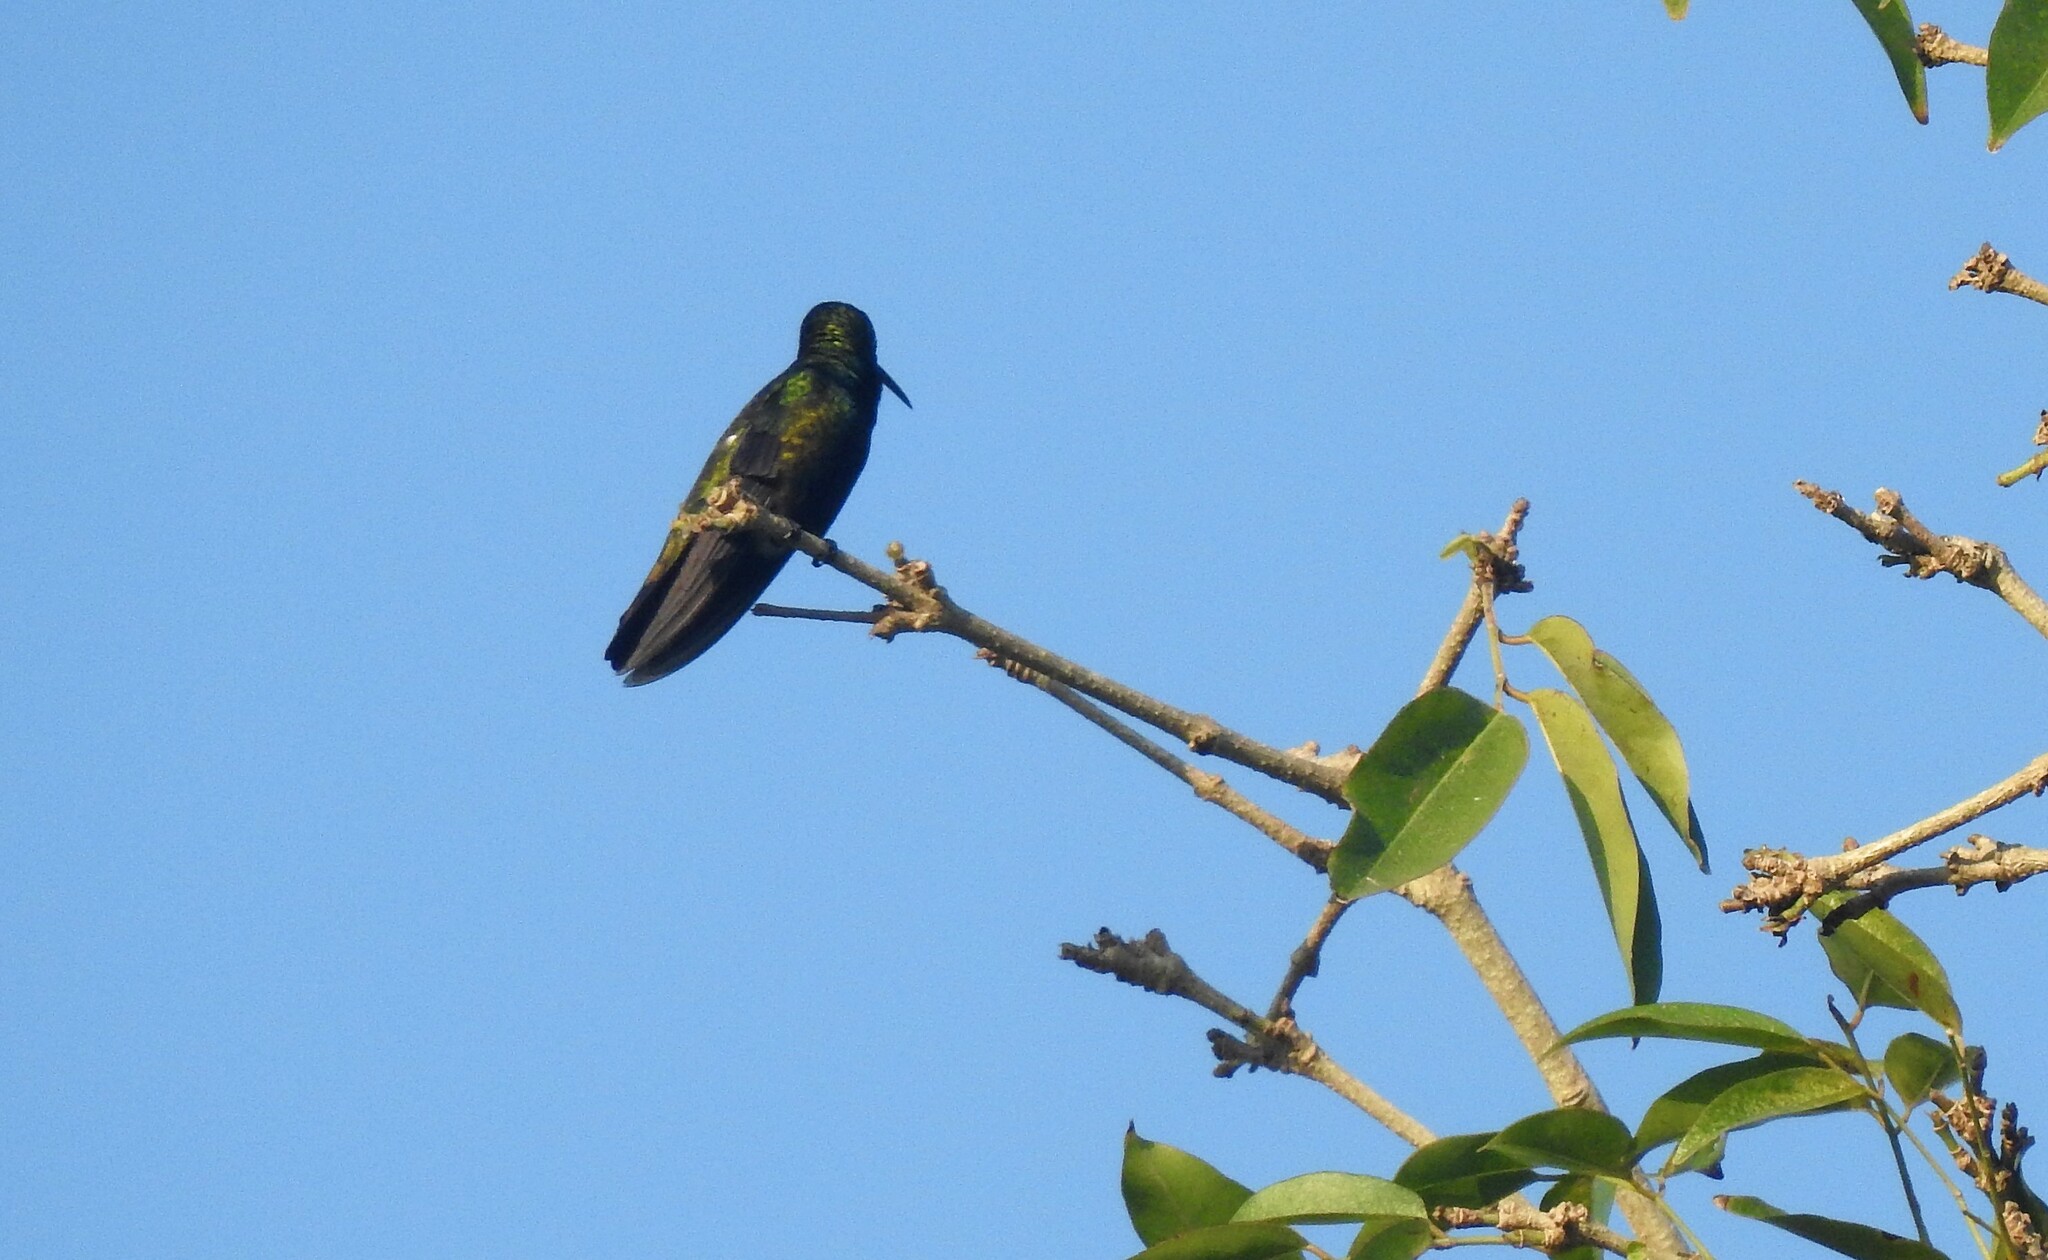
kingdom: Animalia
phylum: Chordata
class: Aves
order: Apodiformes
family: Trochilidae
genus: Anthracothorax
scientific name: Anthracothorax nigricollis
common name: Black-throated mango
